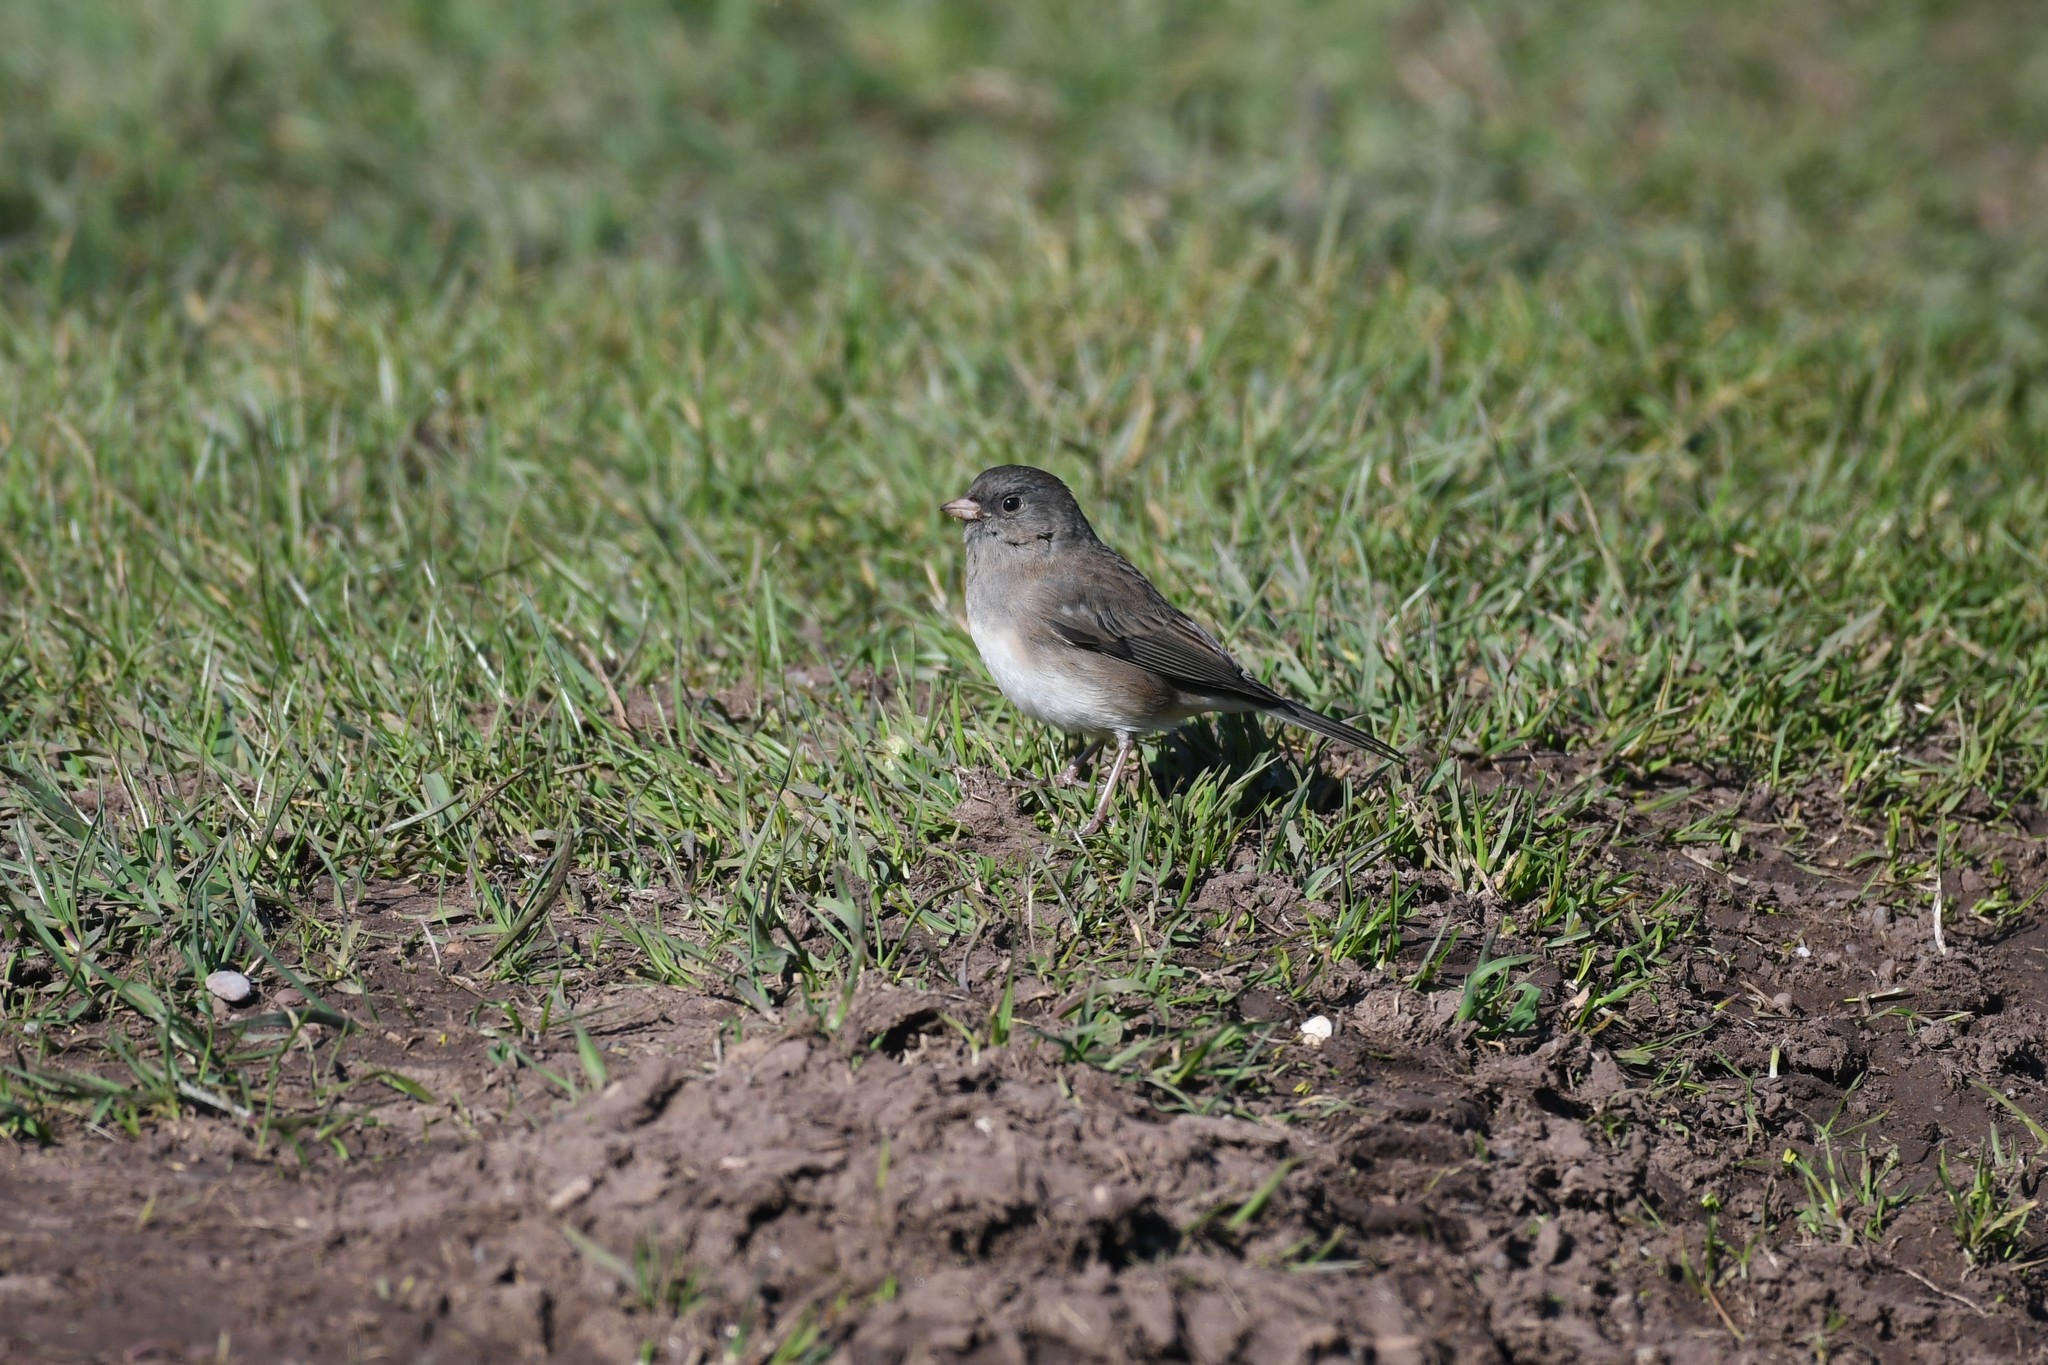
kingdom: Animalia
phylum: Chordata
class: Aves
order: Passeriformes
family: Passerellidae
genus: Junco
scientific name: Junco hyemalis
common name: Dark-eyed junco
